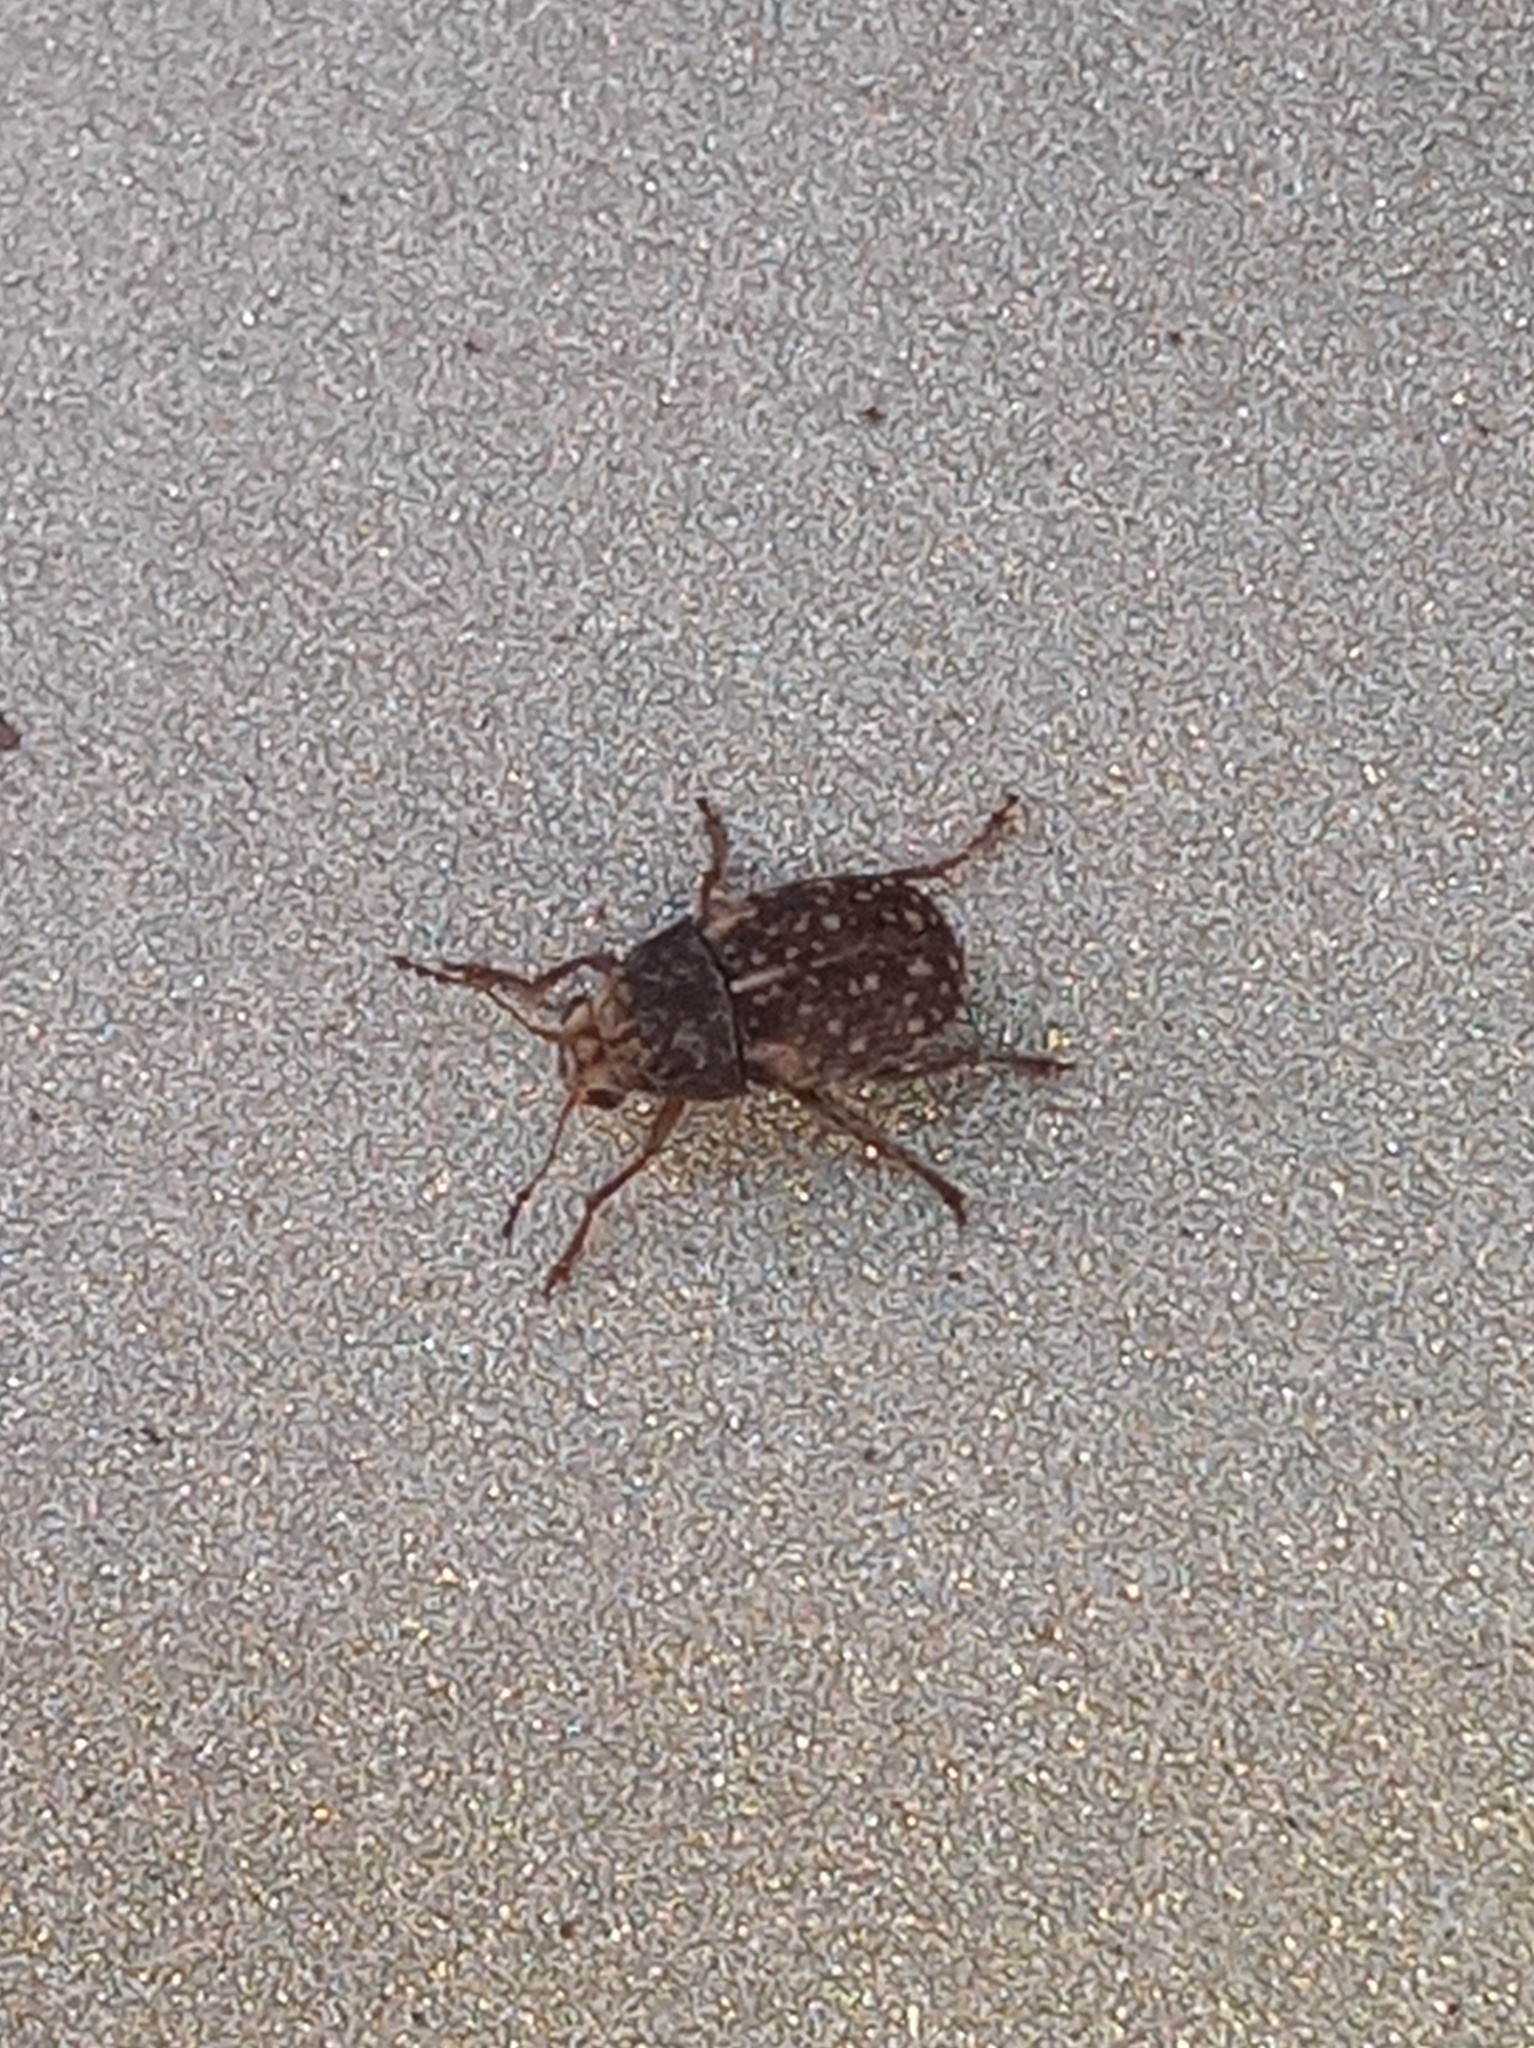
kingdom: Animalia
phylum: Arthropoda
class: Insecta
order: Coleoptera
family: Anthribidae
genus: Araecerus
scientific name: Araecerus fasciculatus
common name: Coffee bean weevil
